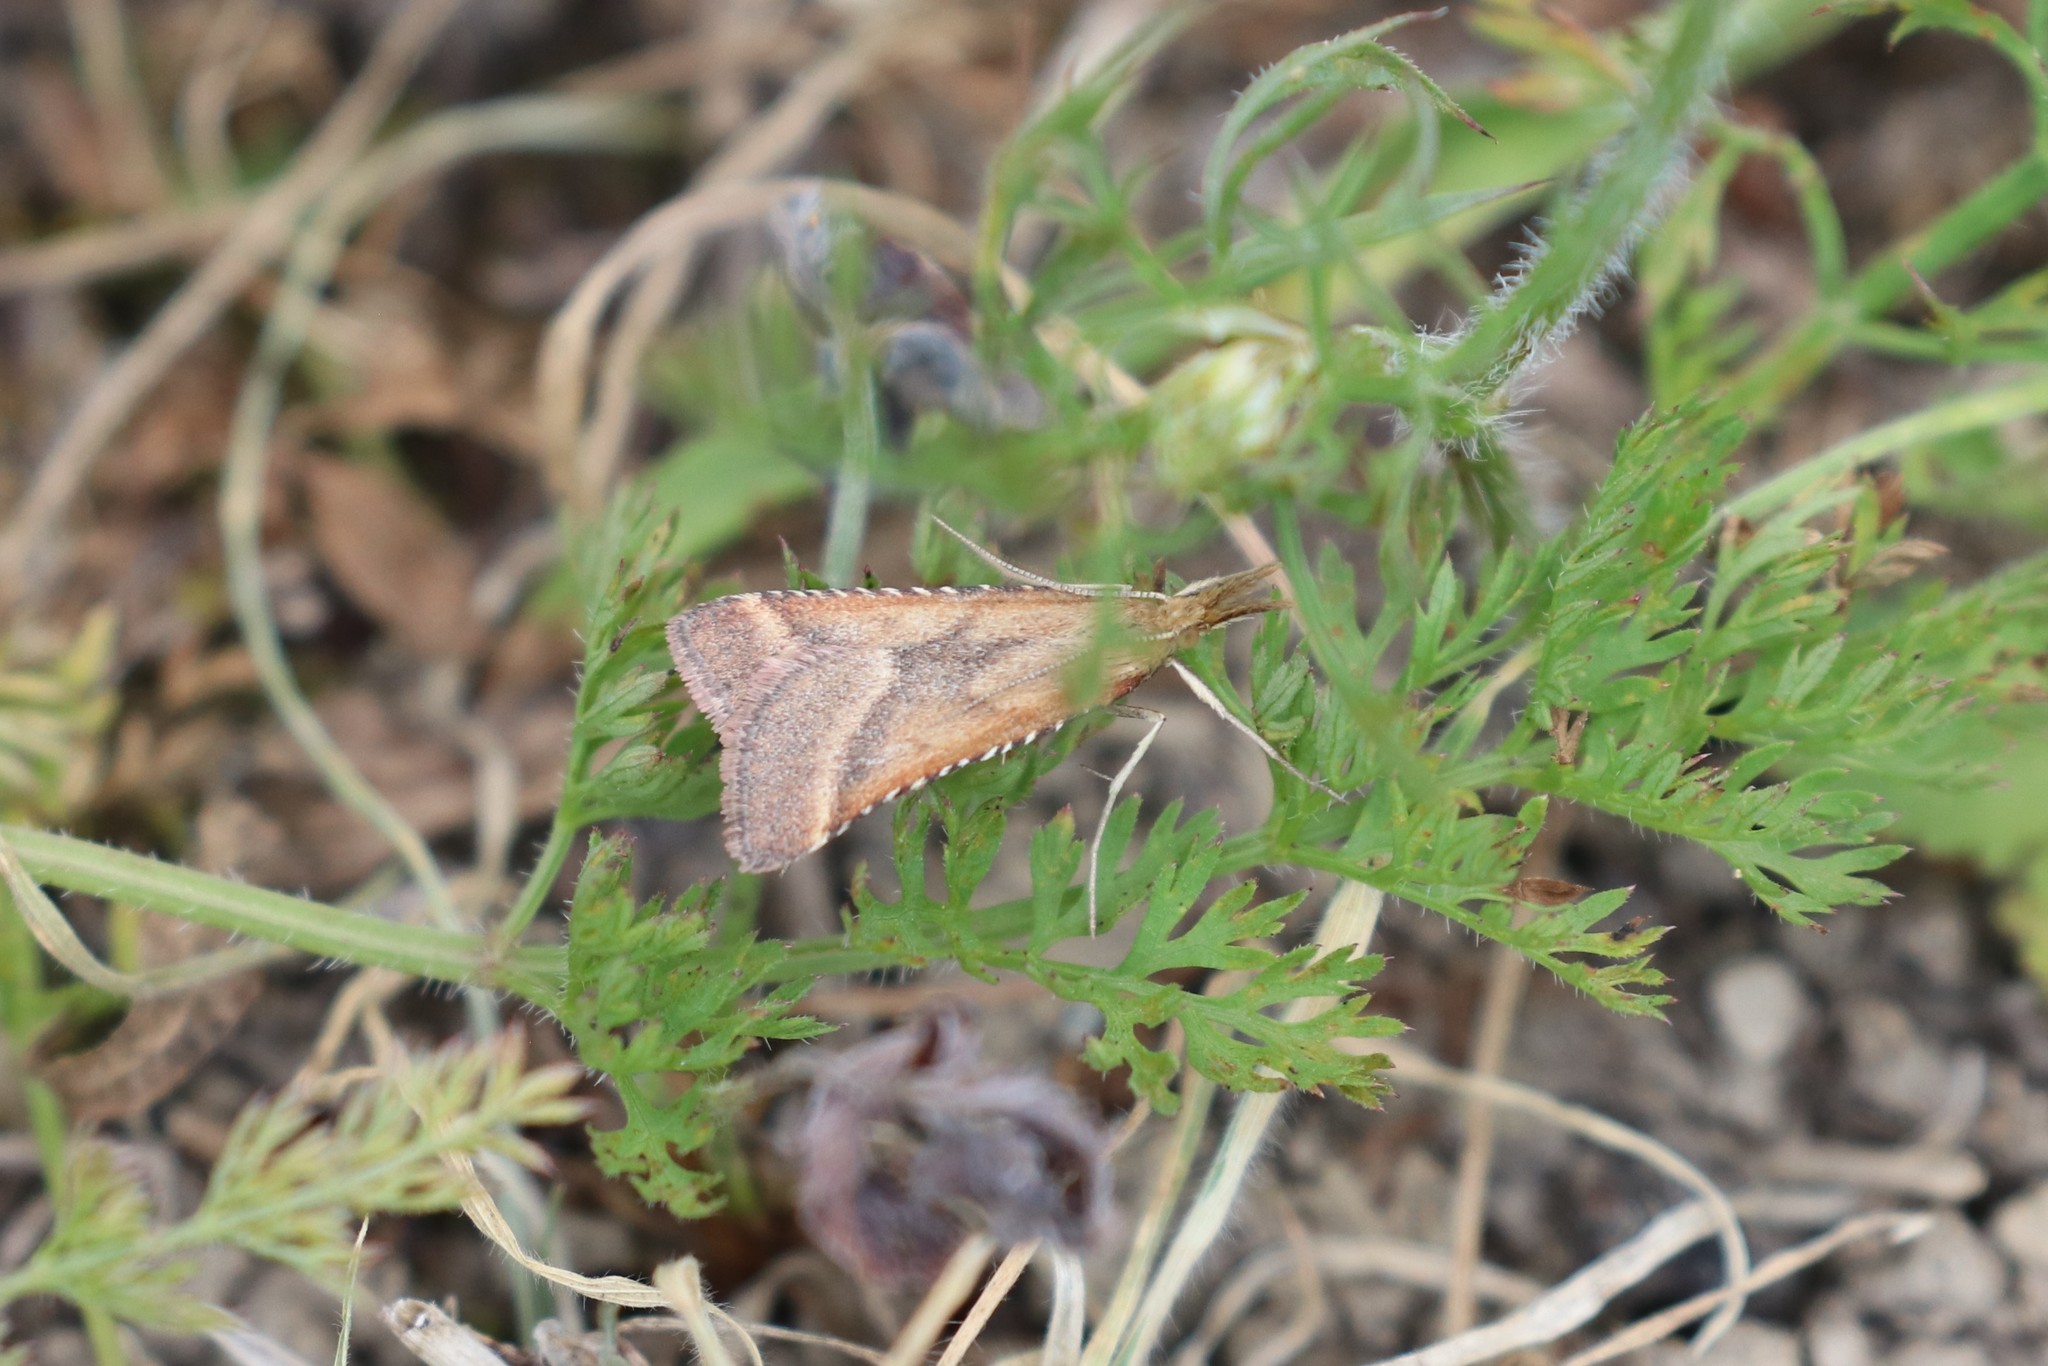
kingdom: Animalia
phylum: Arthropoda
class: Insecta
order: Lepidoptera
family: Pyralidae
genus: Synaphe
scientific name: Synaphe punctalis
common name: Long-legged tabby
